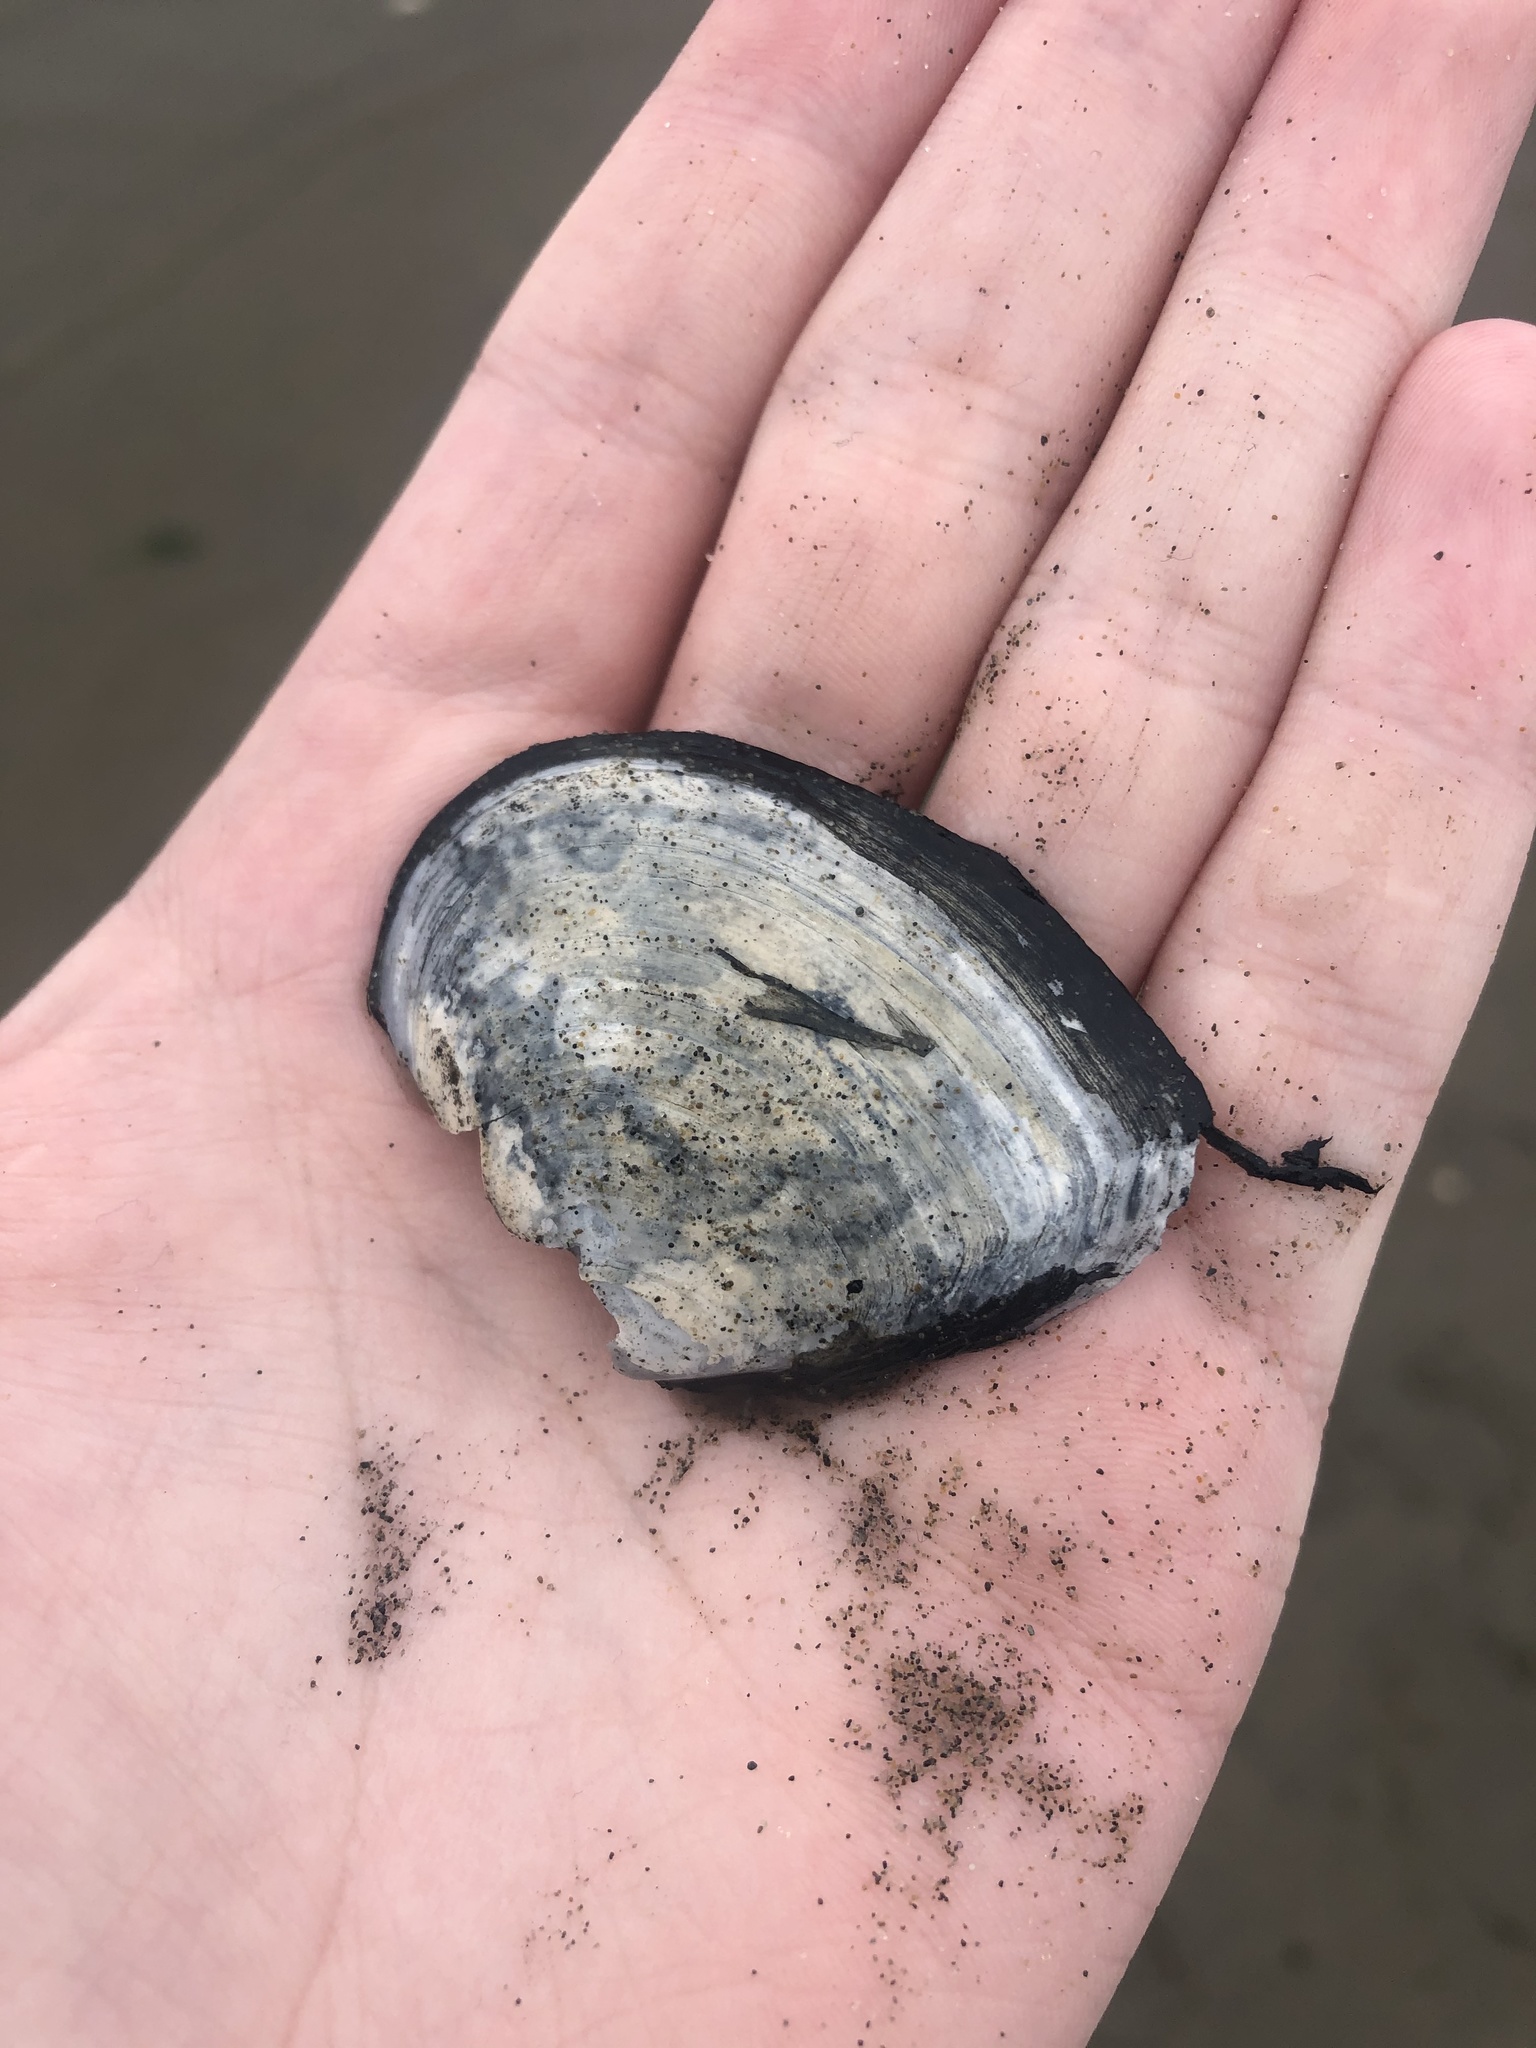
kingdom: Animalia
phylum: Mollusca
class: Bivalvia
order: Cardiida
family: Tellinidae
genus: Macoma
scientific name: Macoma nasuta
